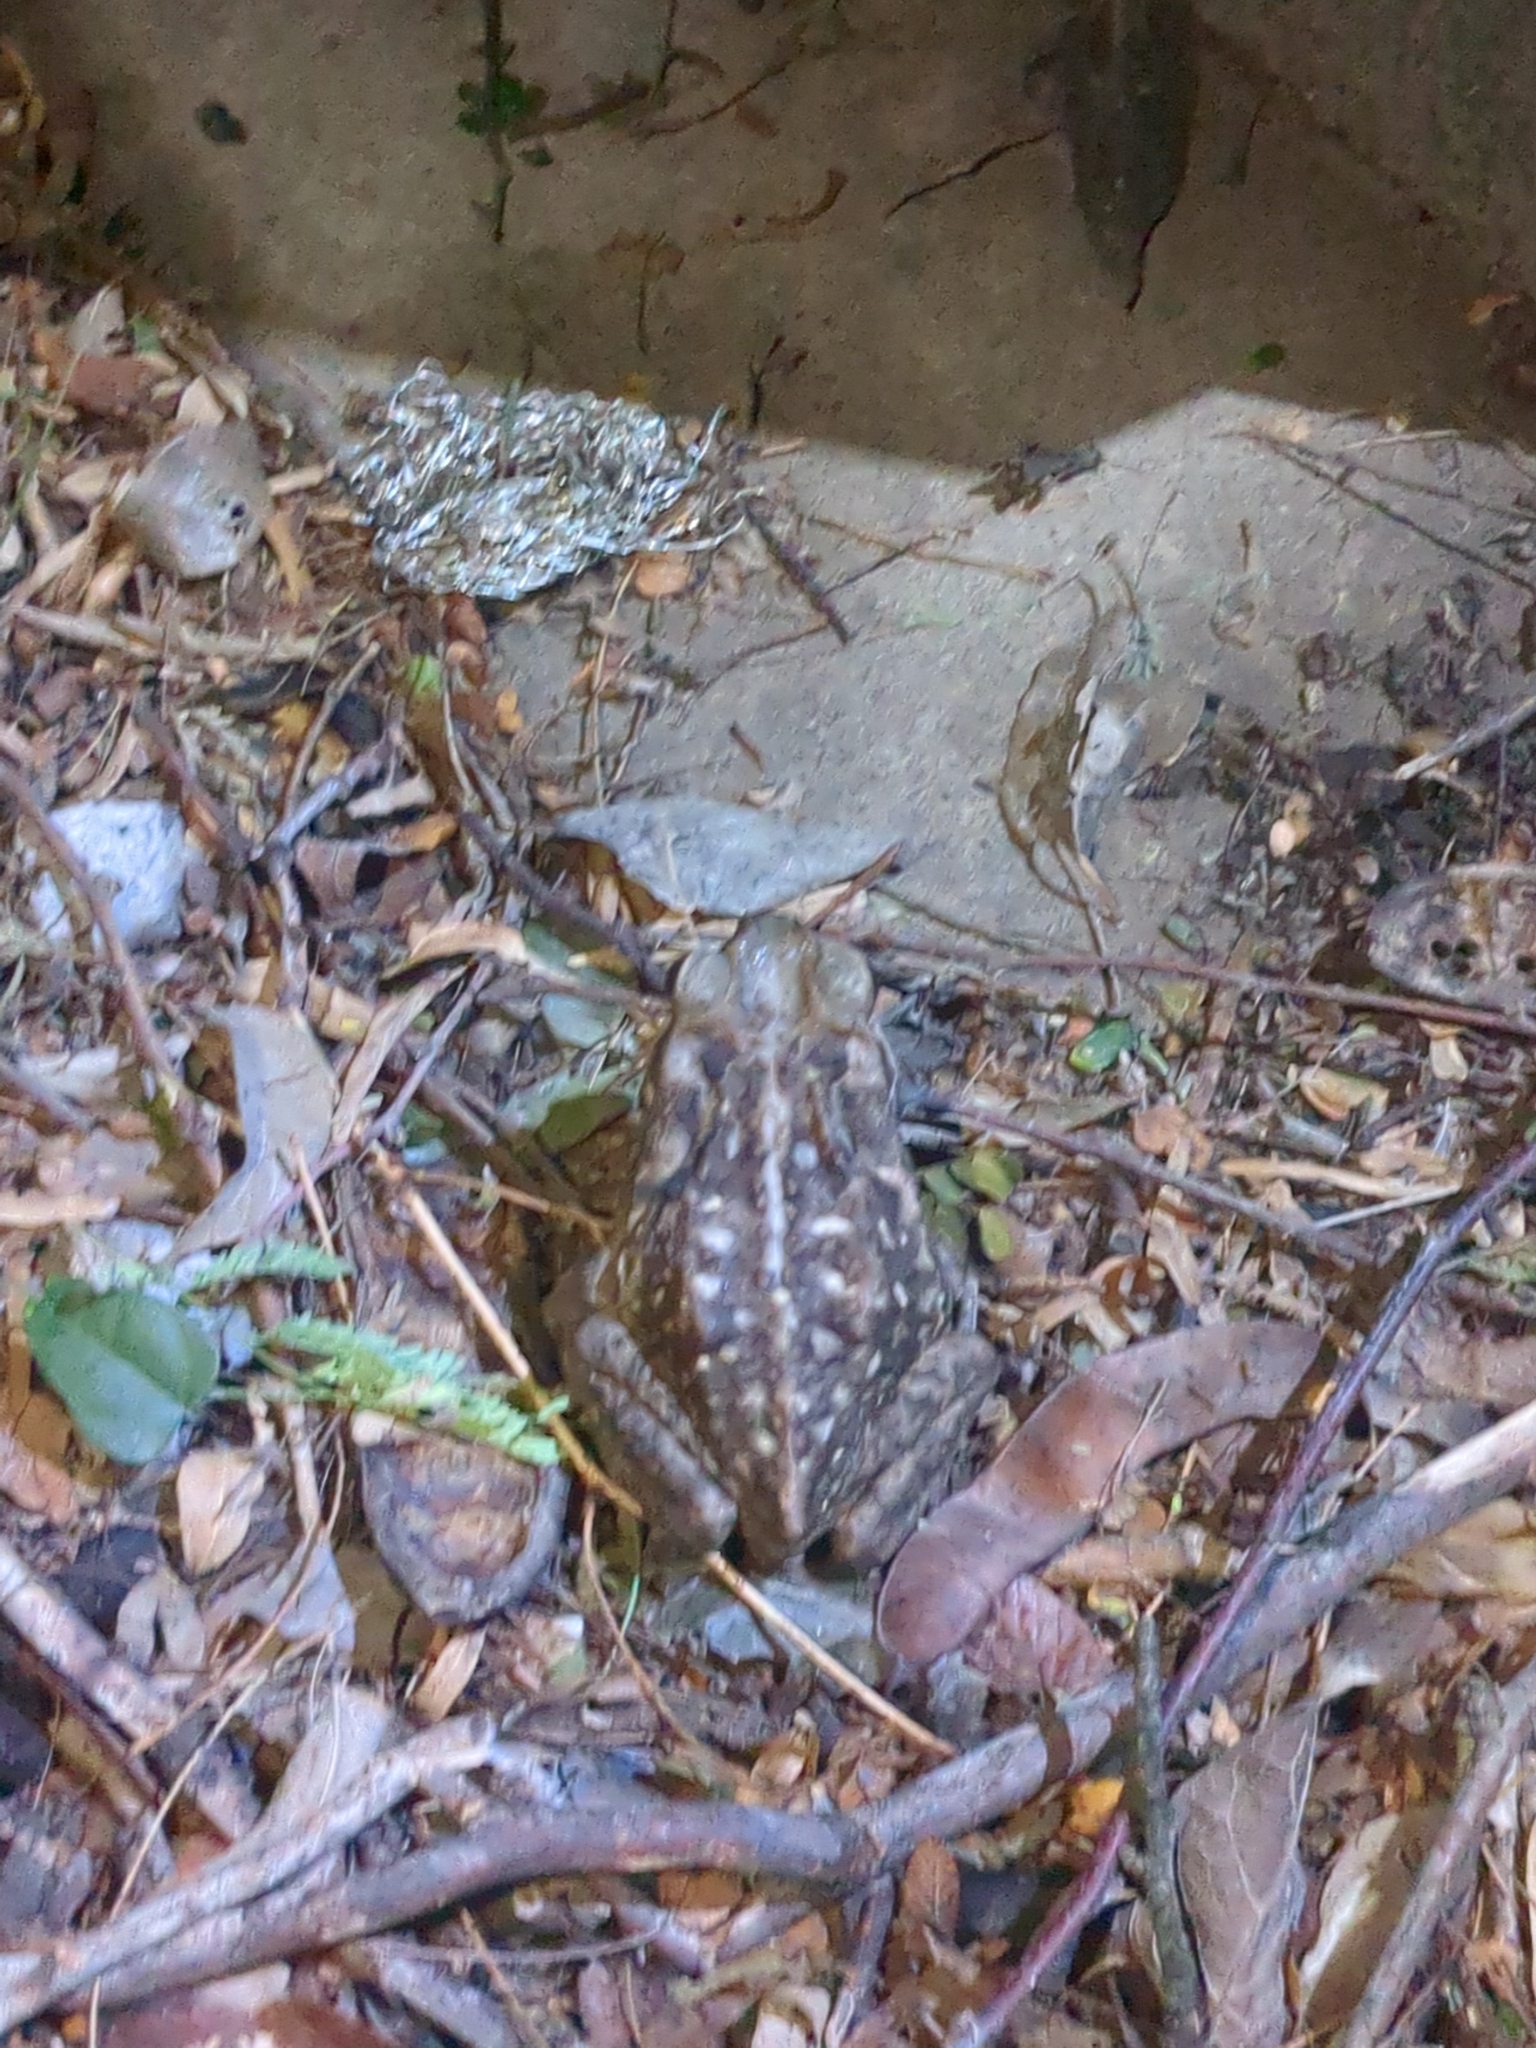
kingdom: Animalia
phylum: Chordata
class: Amphibia
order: Anura
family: Bufonidae
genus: Rhinella
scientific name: Rhinella horribilis
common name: Mesoamerican cane toad
